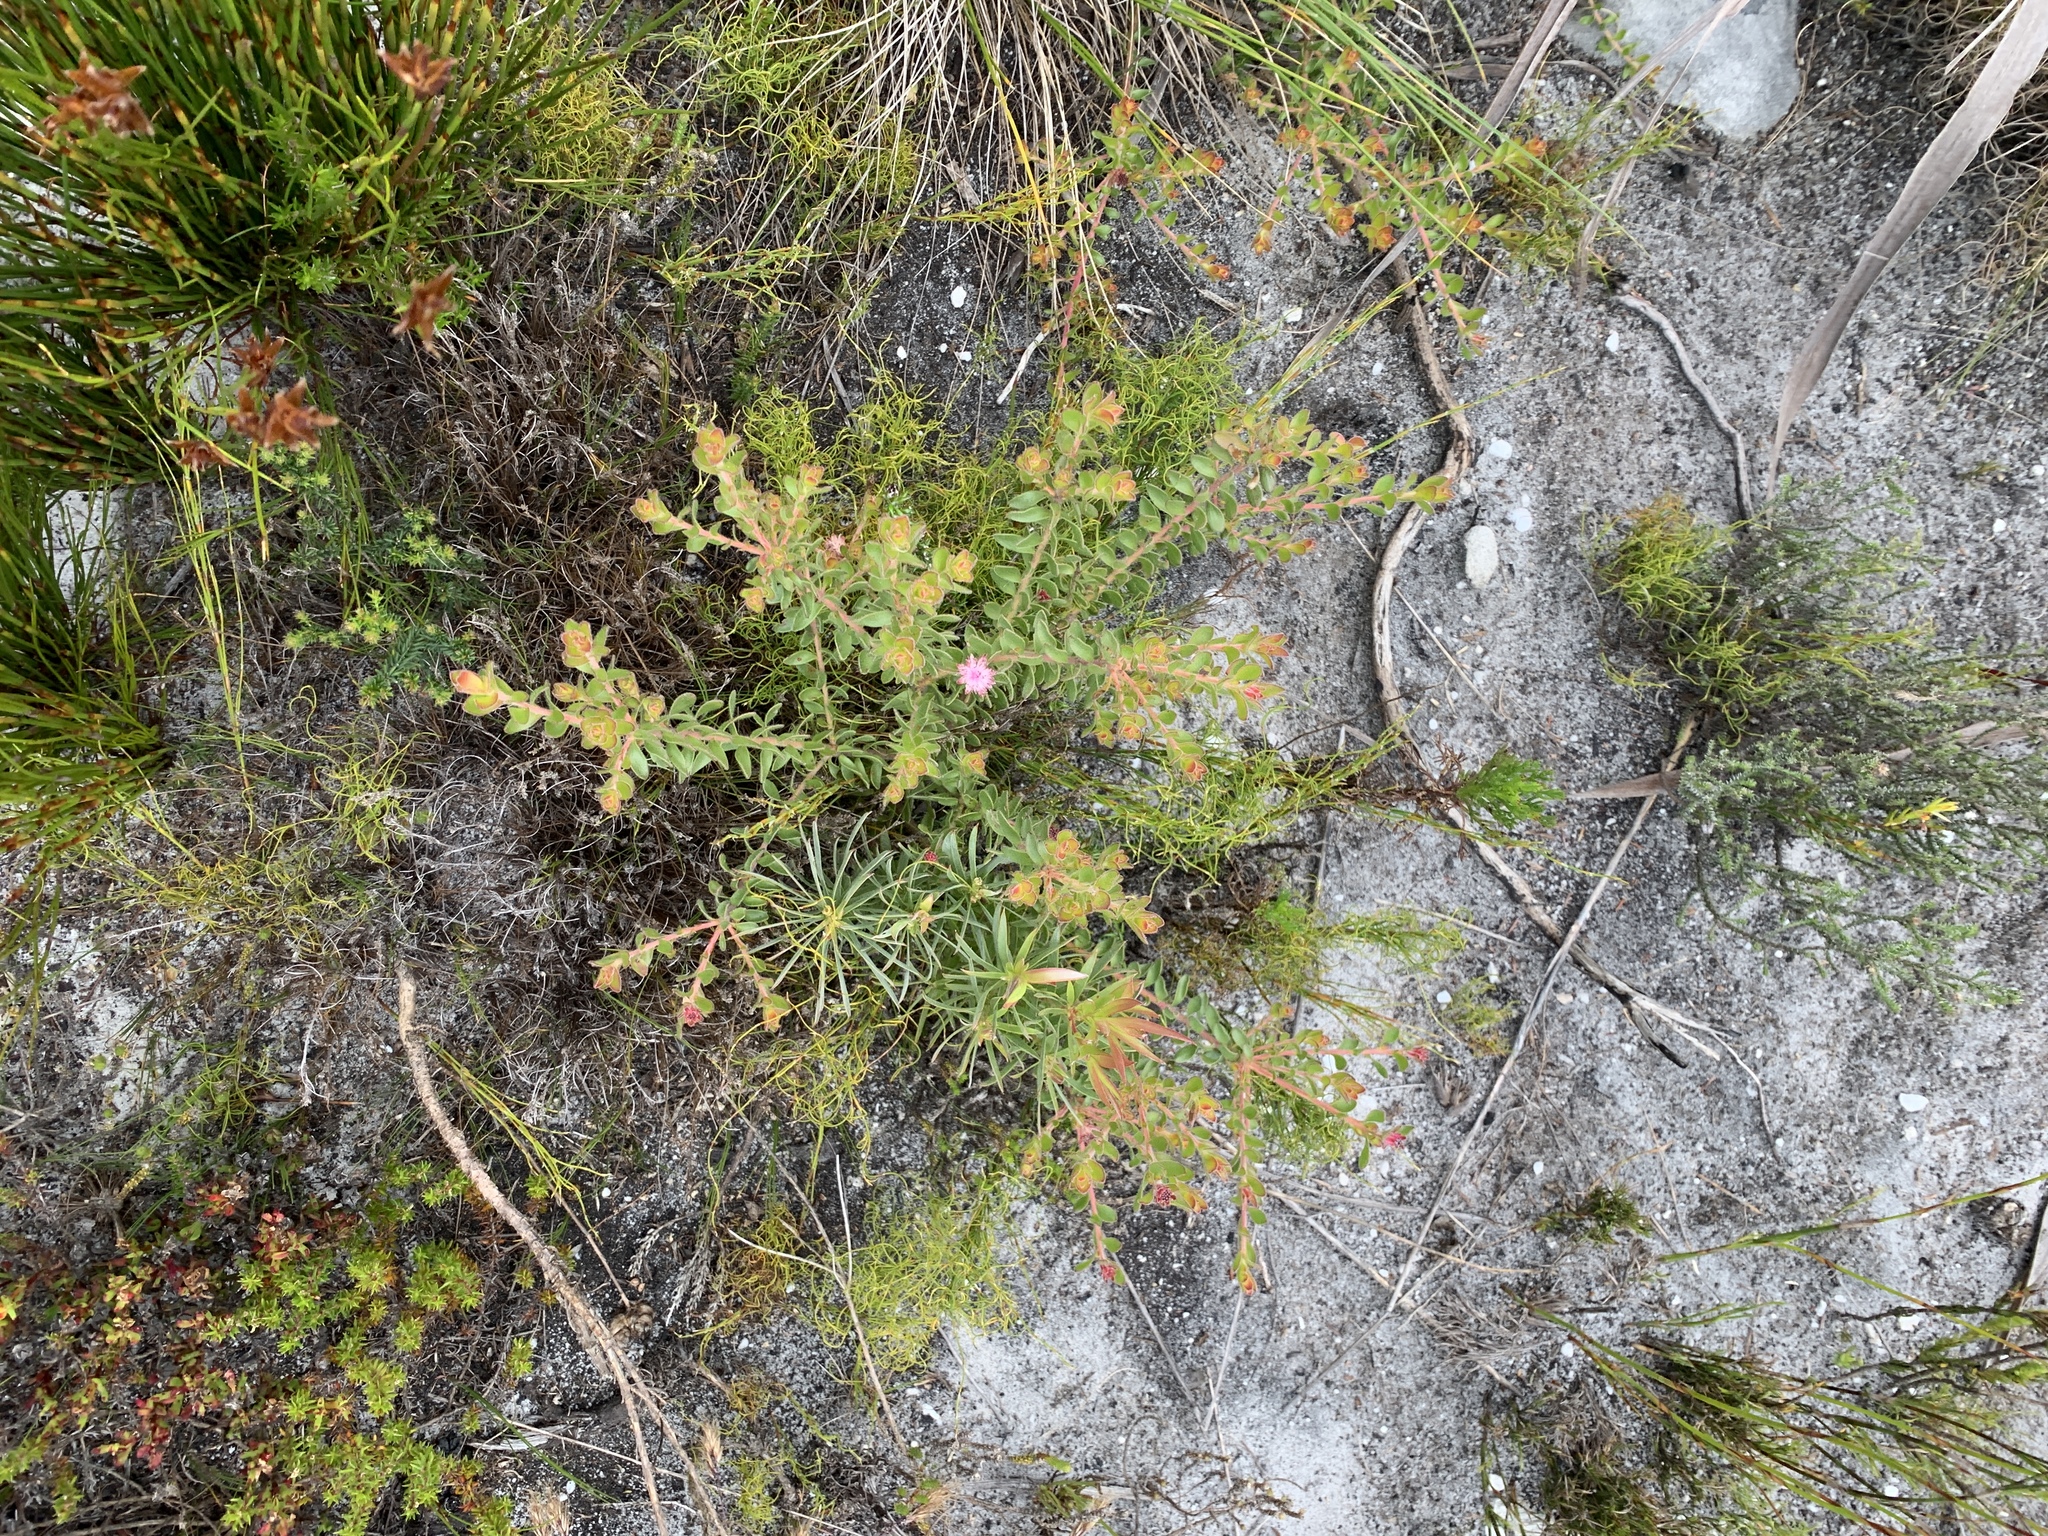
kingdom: Plantae
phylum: Tracheophyta
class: Magnoliopsida
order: Proteales
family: Proteaceae
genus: Diastella
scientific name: Diastella divaricata
